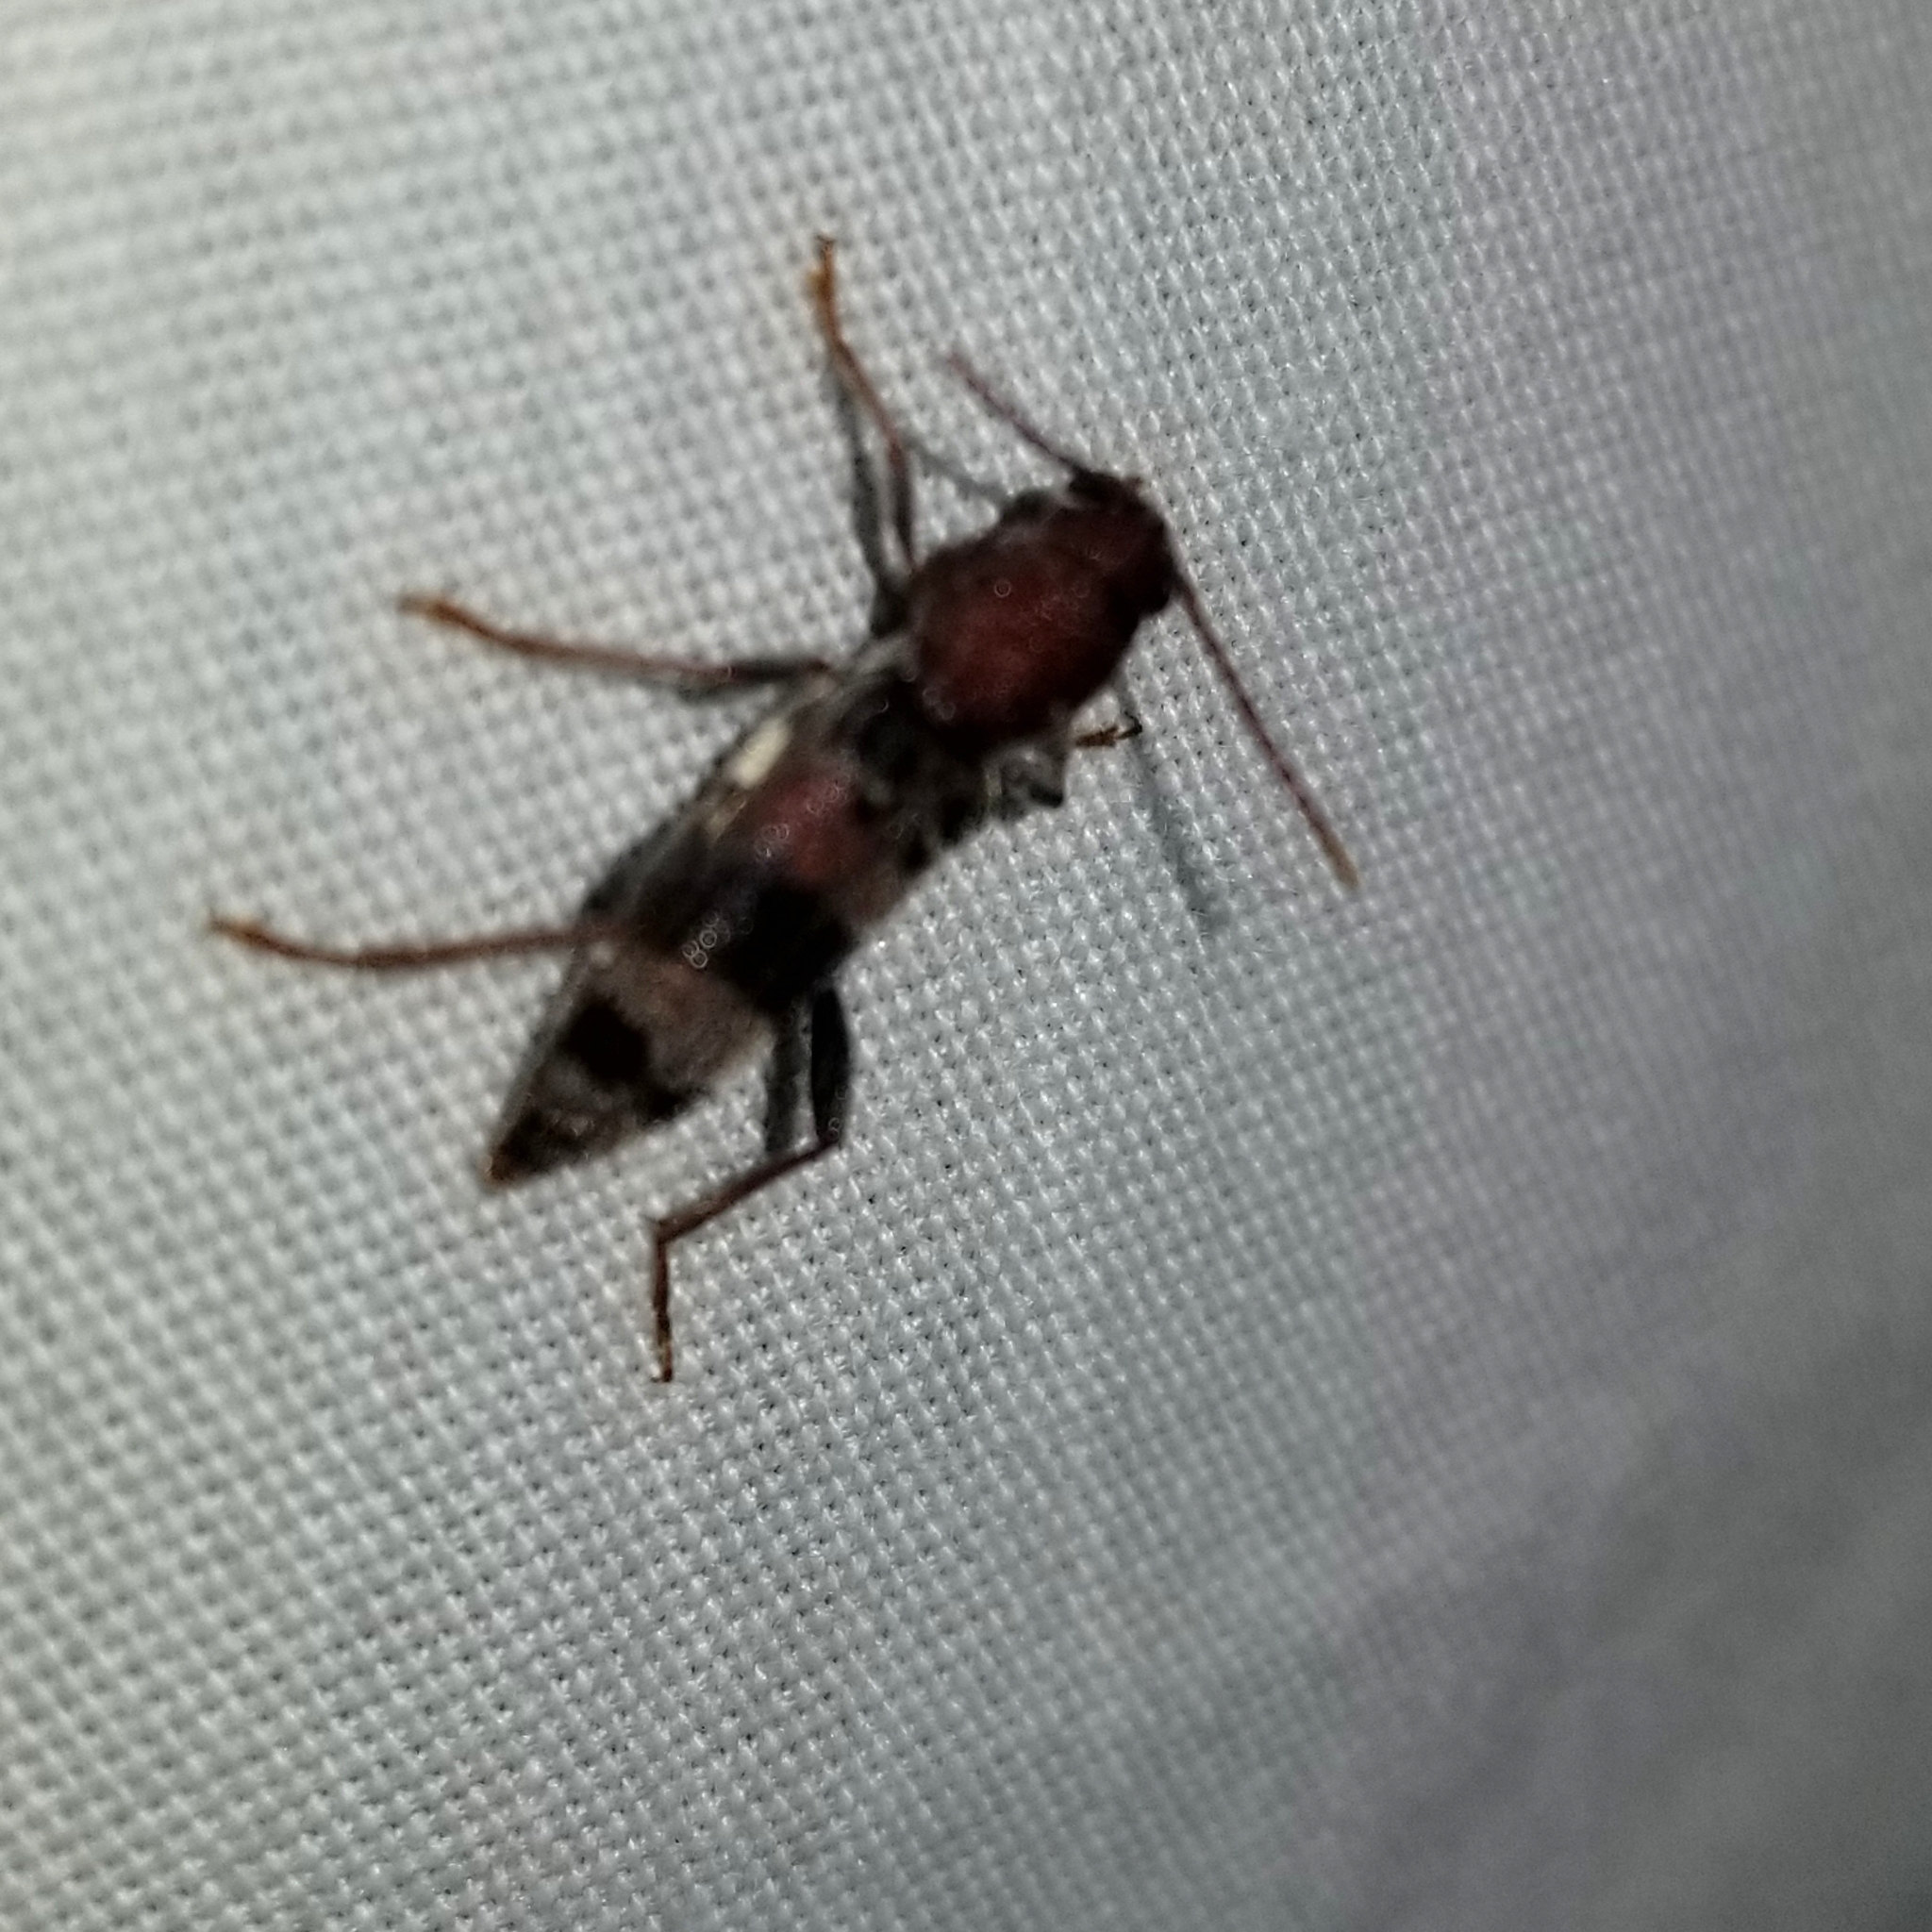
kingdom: Animalia
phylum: Arthropoda
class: Insecta
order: Coleoptera
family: Cerambycidae
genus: Xylotrechus
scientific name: Xylotrechus colonus
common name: Long-horned beetle
